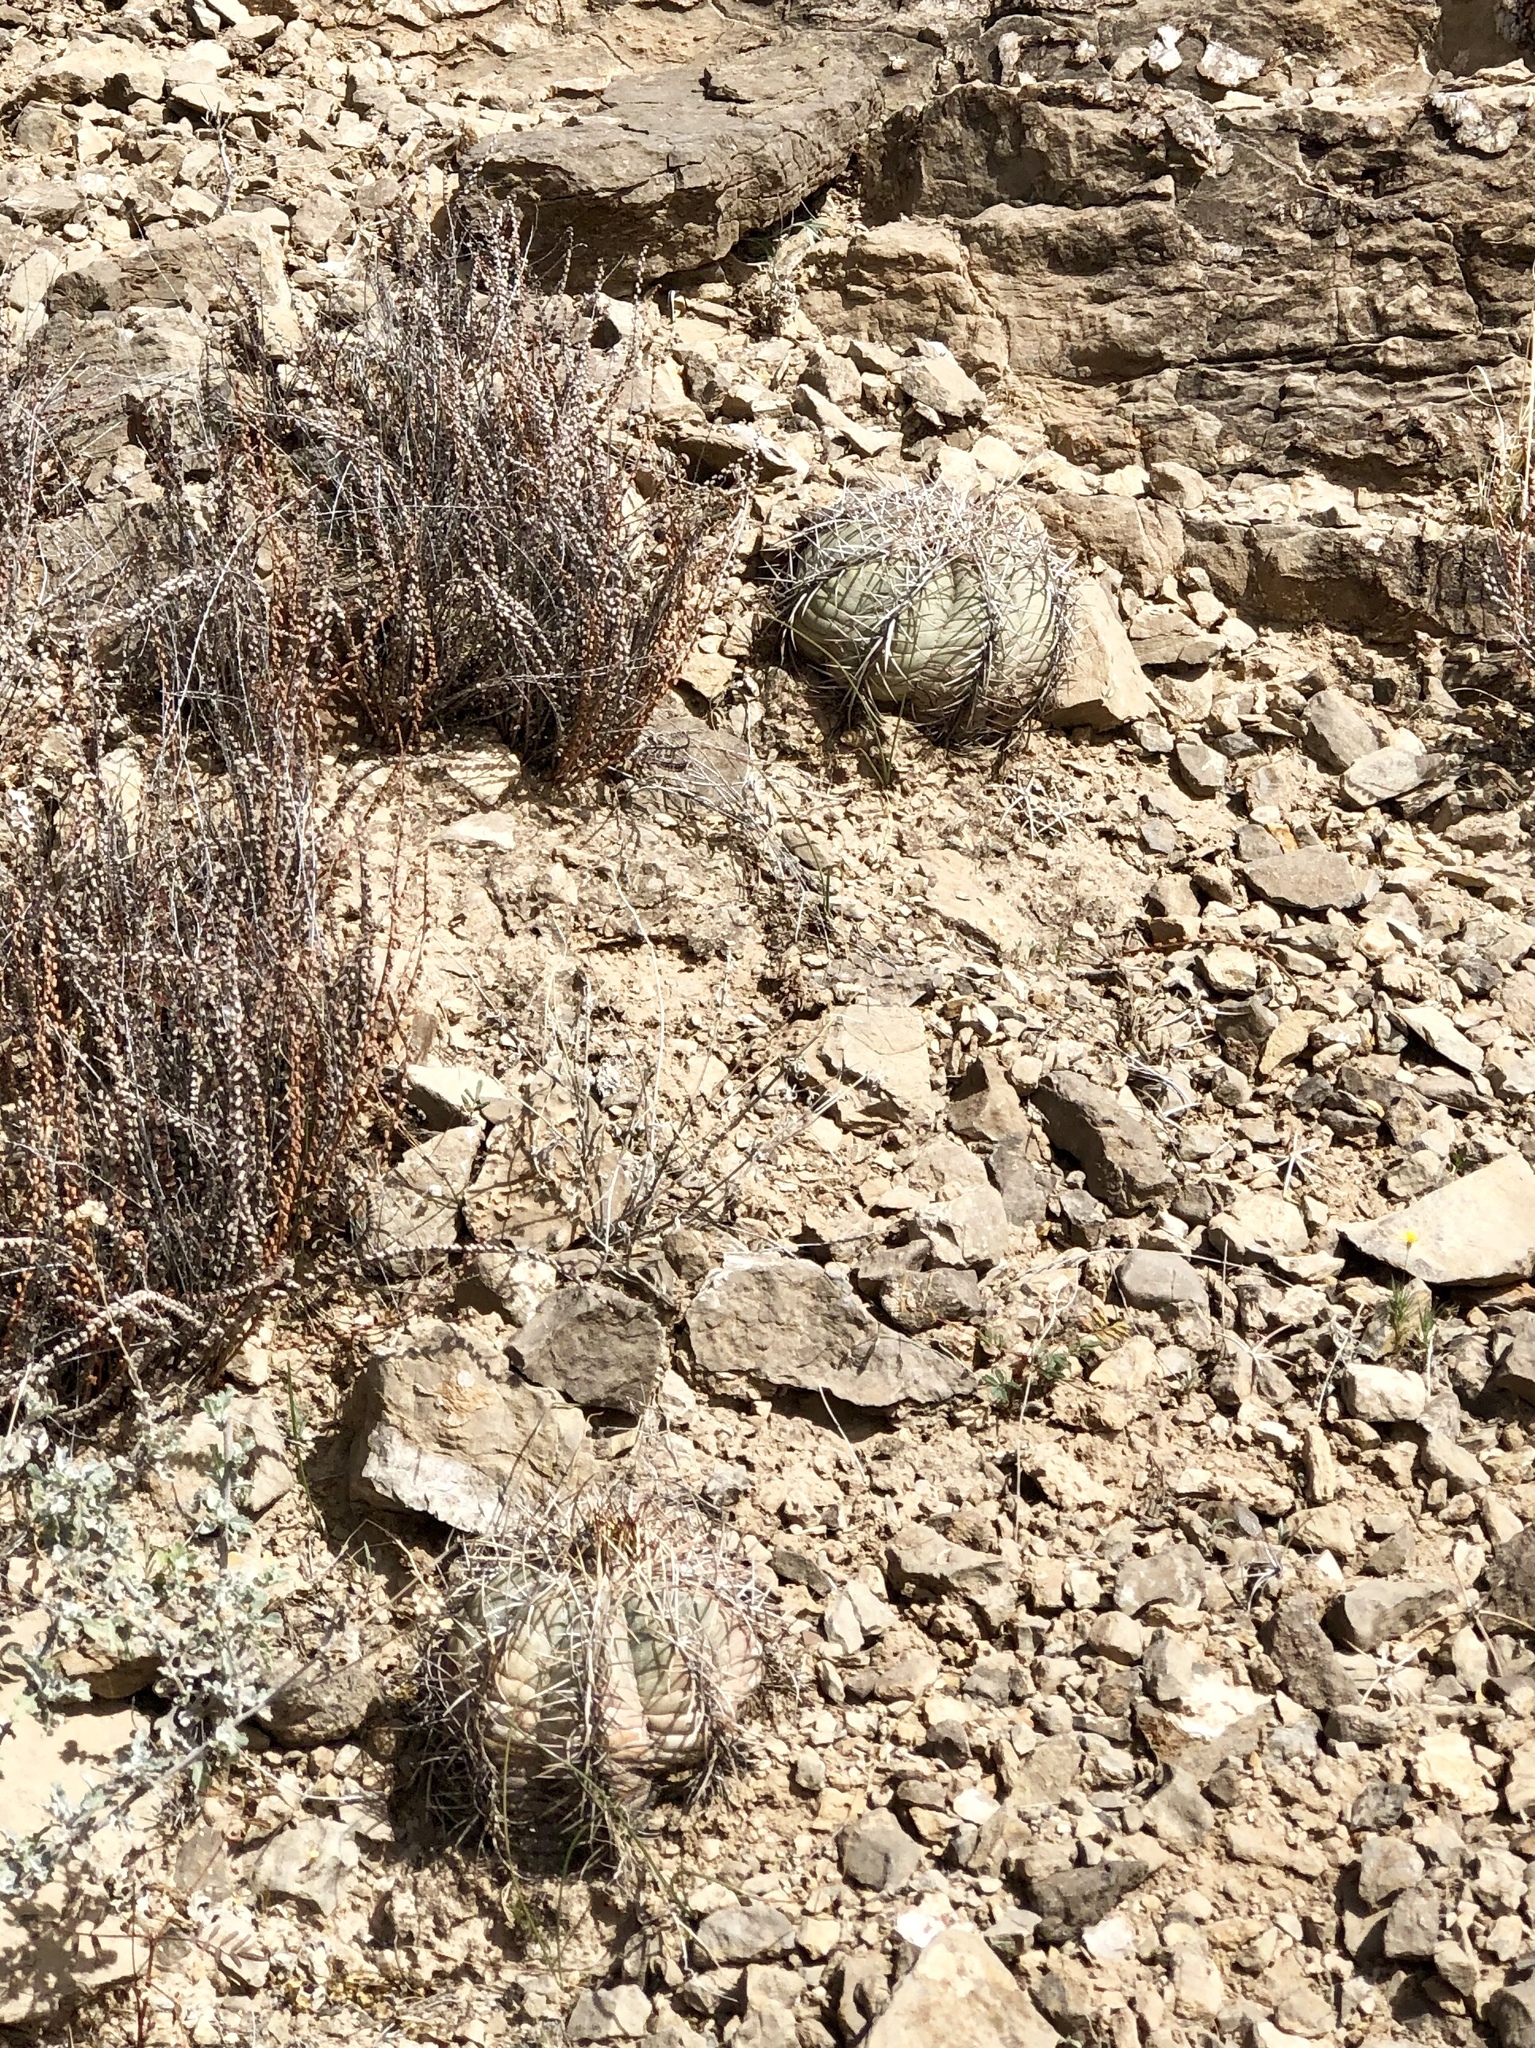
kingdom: Plantae
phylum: Tracheophyta
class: Magnoliopsida
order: Caryophyllales
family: Cactaceae
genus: Echinocactus
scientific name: Echinocactus horizonthalonius
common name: Devilshead
